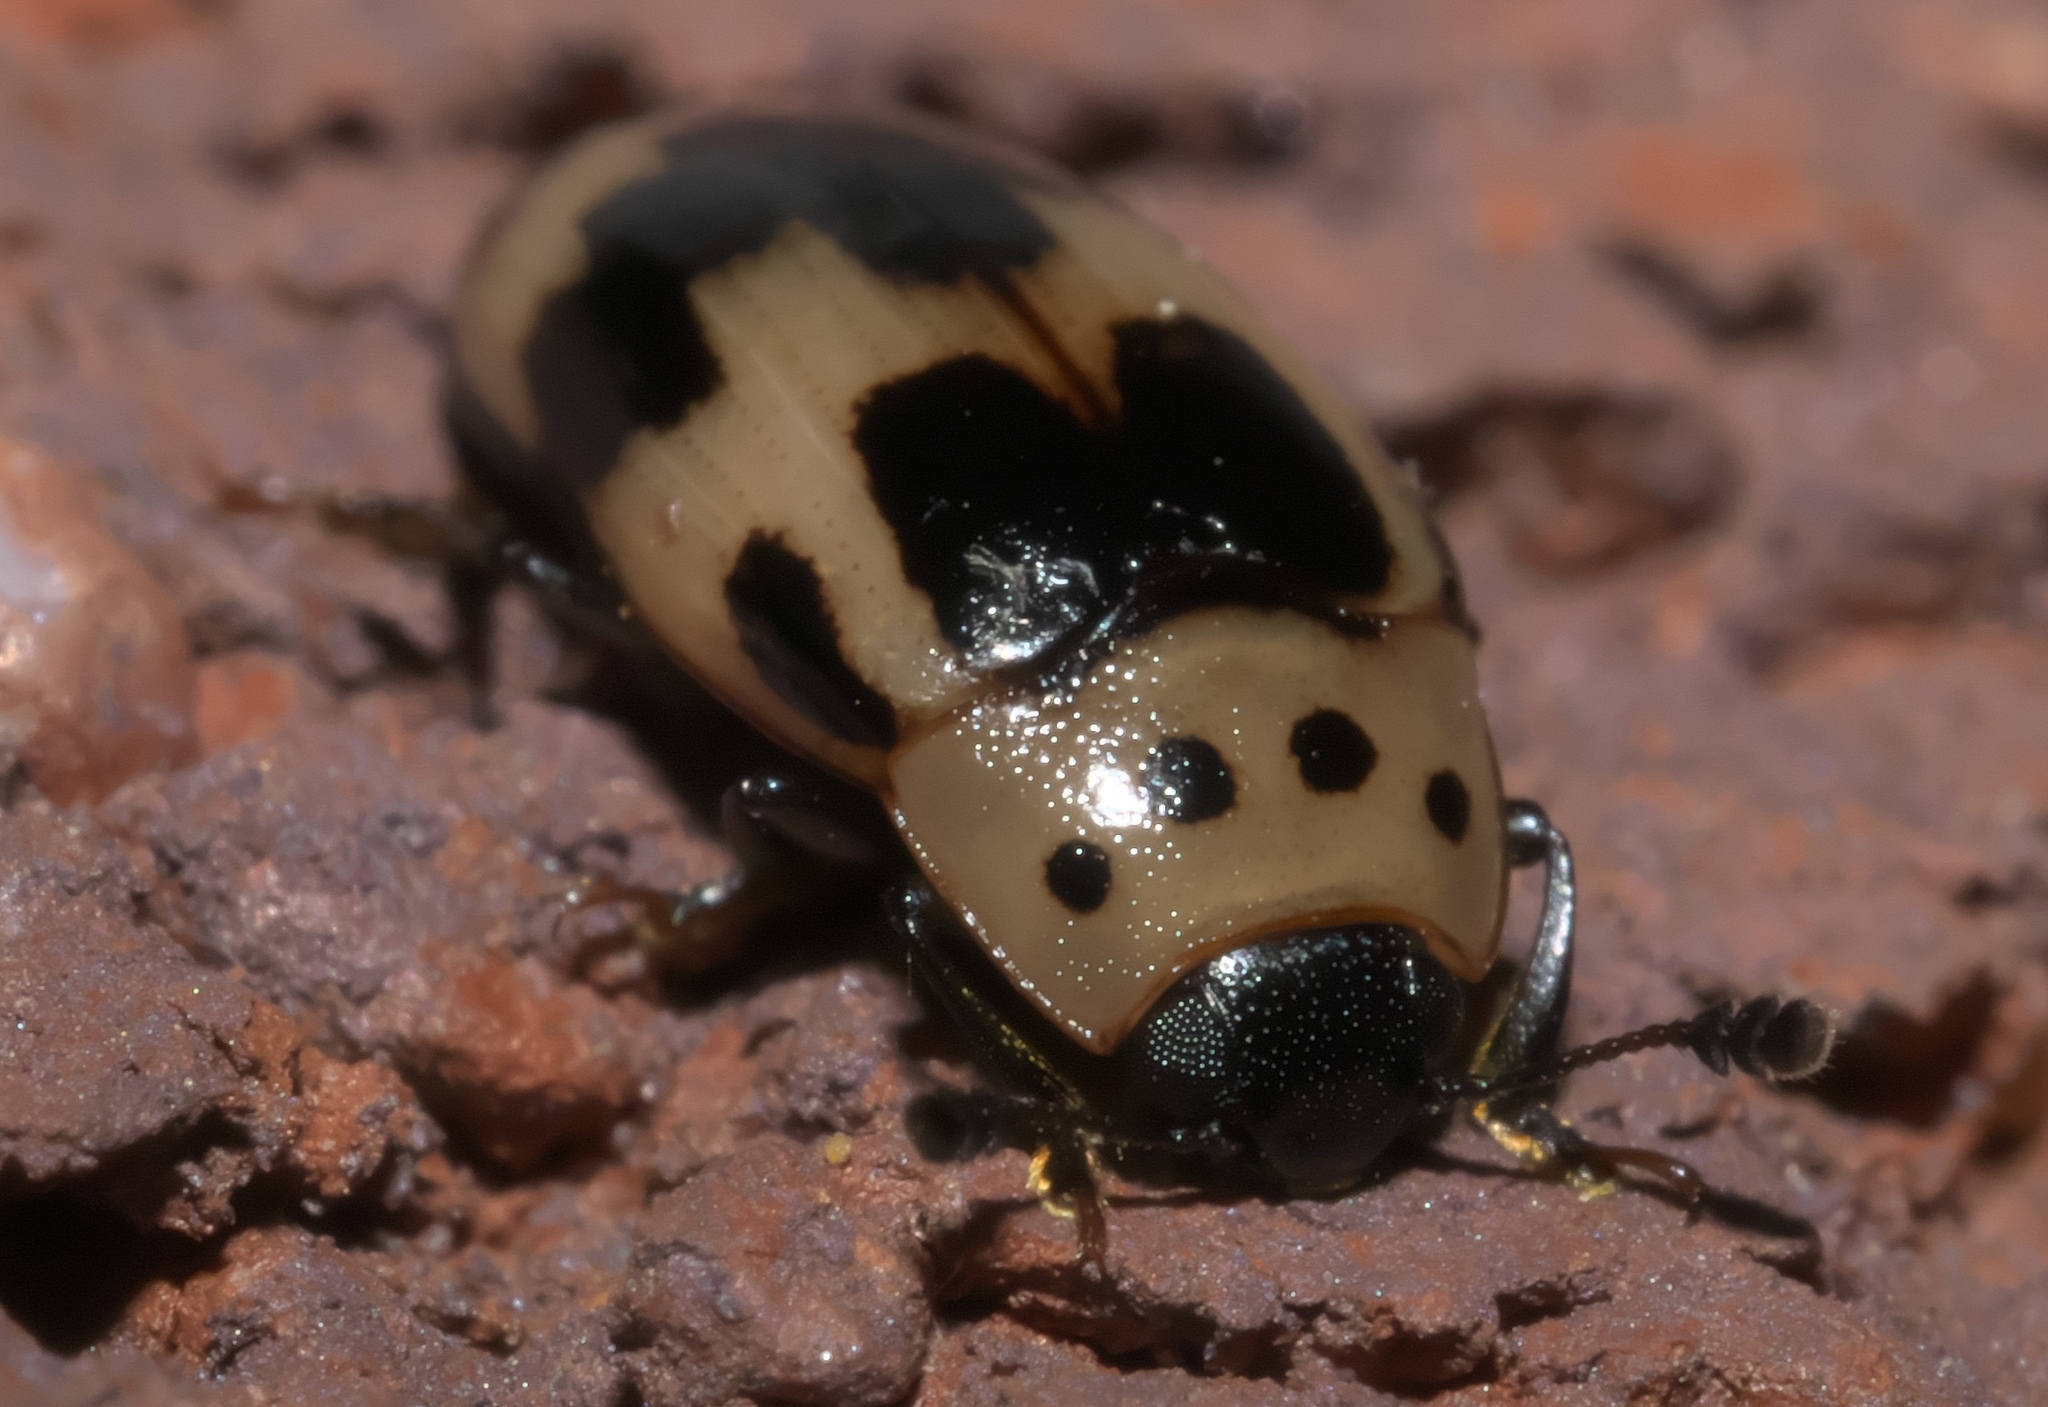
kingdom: Animalia
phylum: Arthropoda
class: Insecta
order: Coleoptera
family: Erotylidae
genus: Ischyrus
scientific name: Ischyrus quadripunctatus
